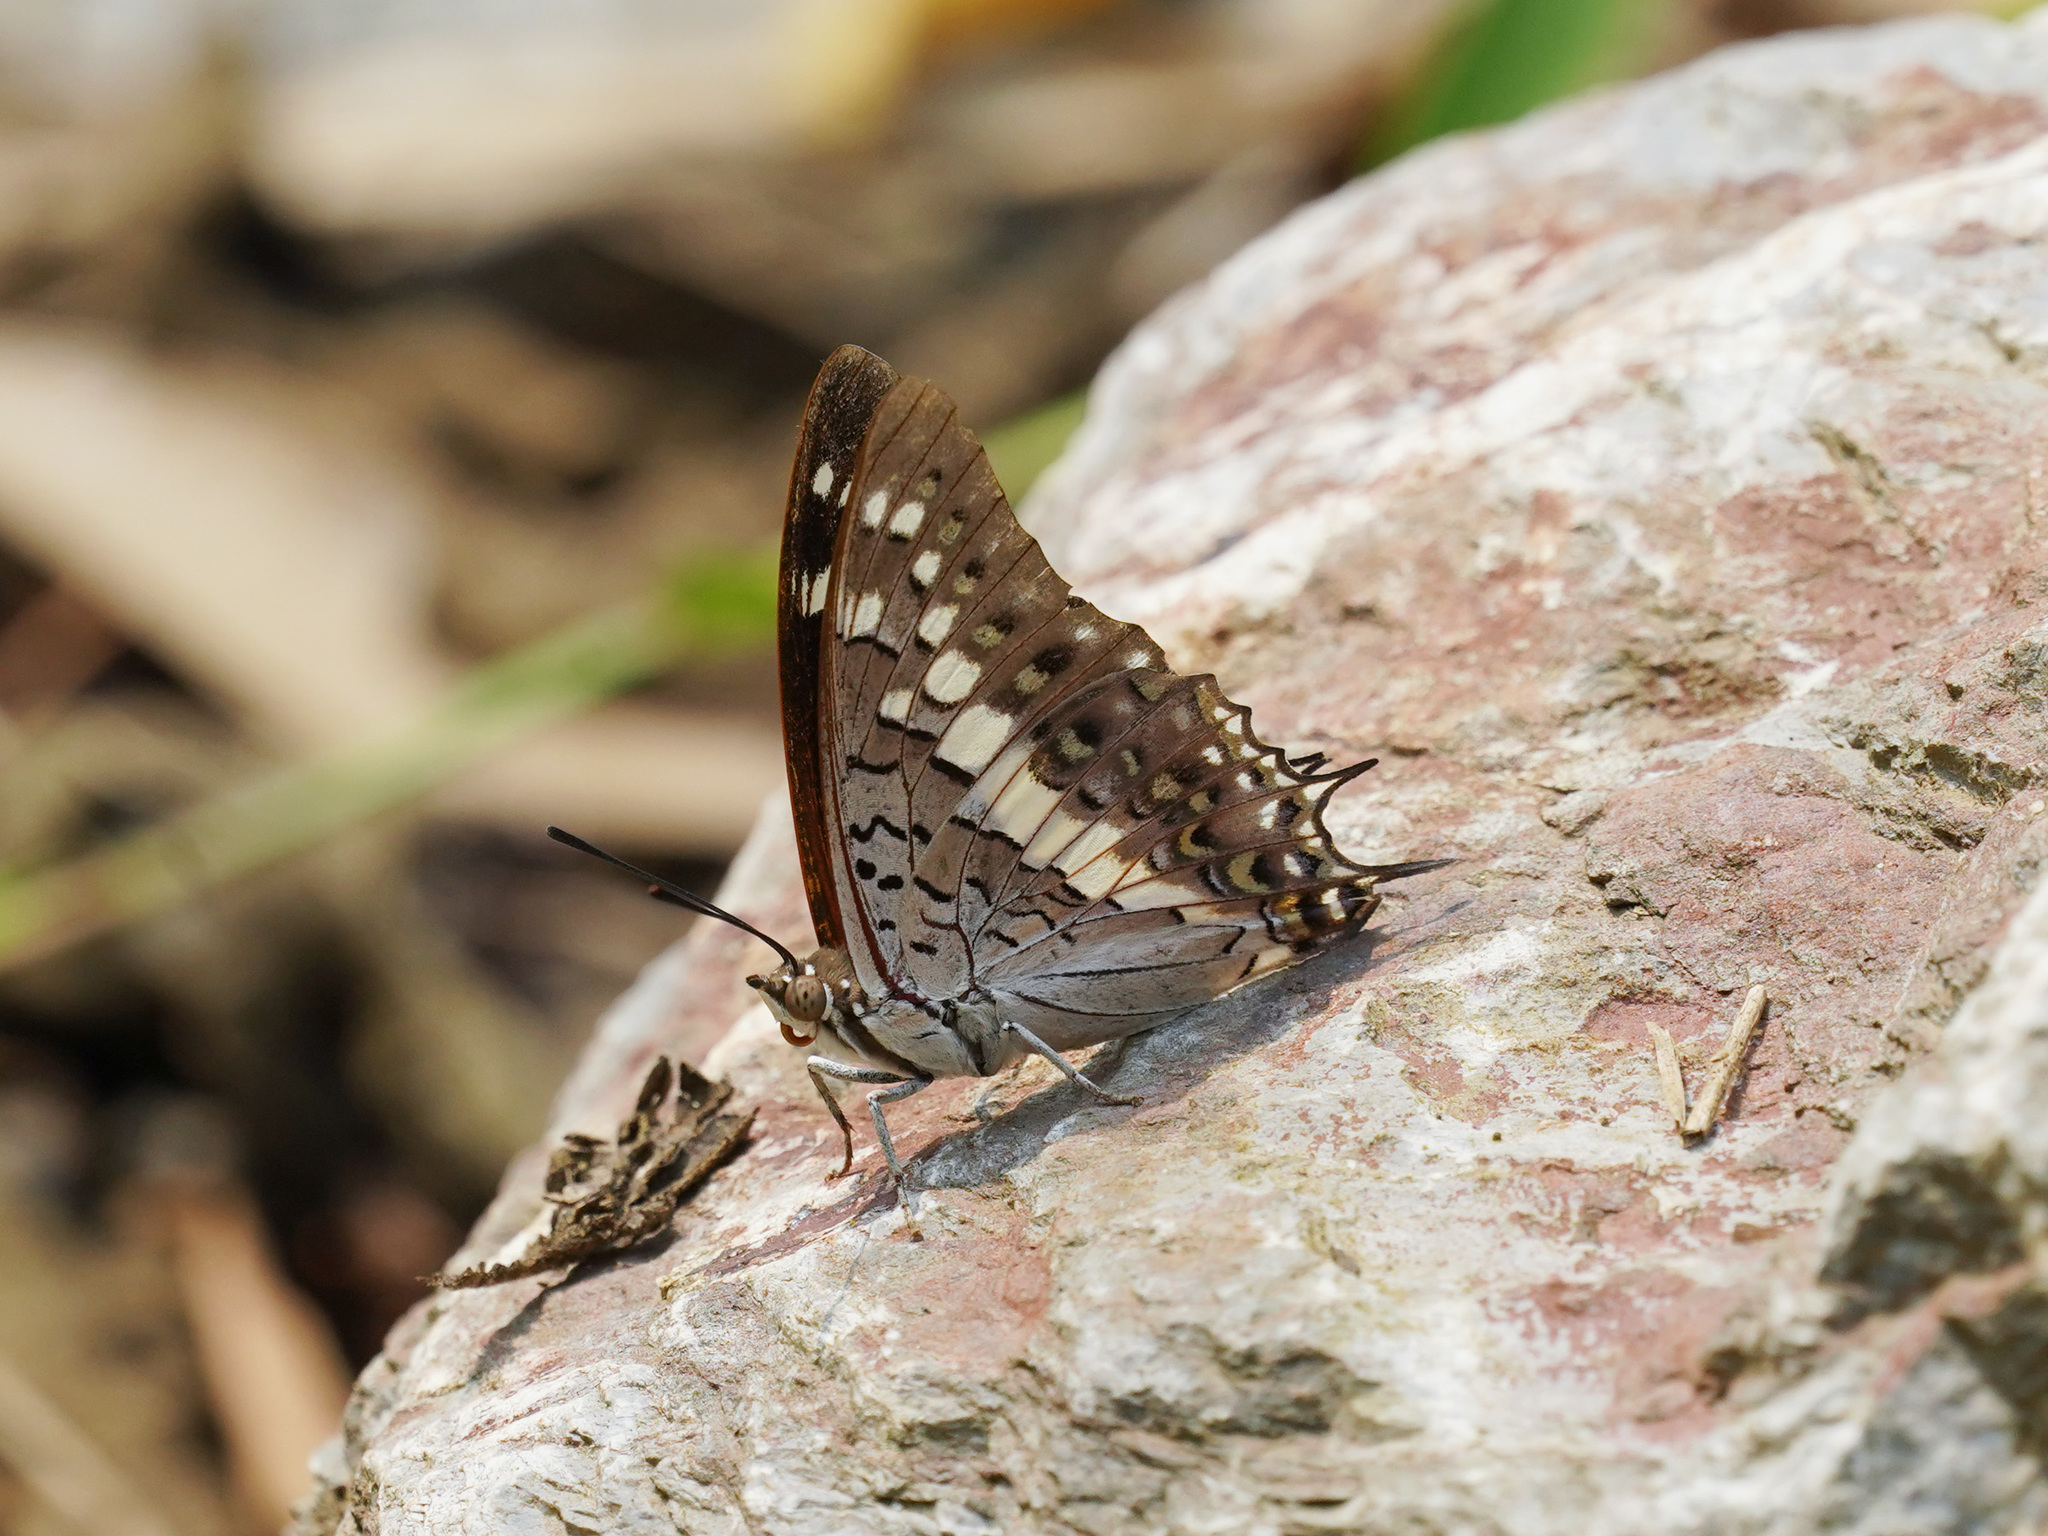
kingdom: Animalia
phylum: Arthropoda
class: Insecta
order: Lepidoptera
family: Nymphalidae
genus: Charaxes
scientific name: Charaxes solon
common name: Black rajah
